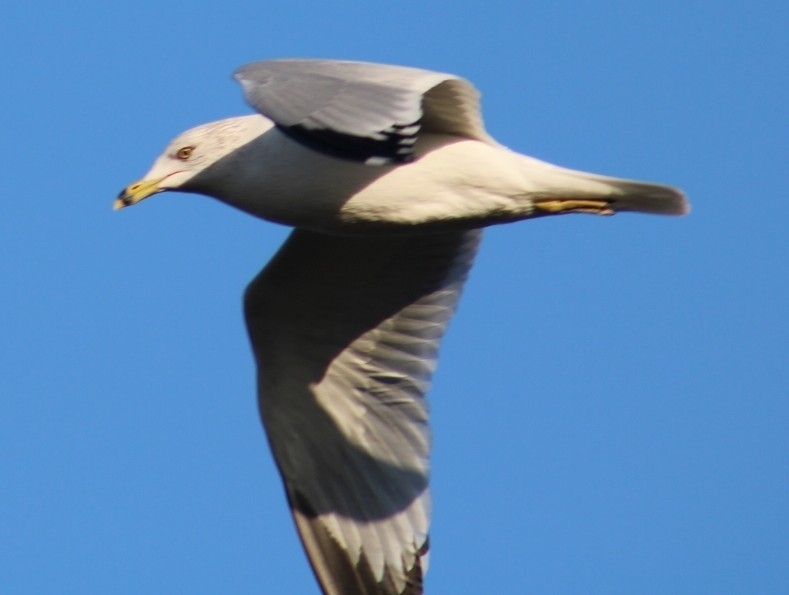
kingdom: Animalia
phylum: Chordata
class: Aves
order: Charadriiformes
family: Laridae
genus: Larus
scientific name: Larus delawarensis
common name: Ring-billed gull
